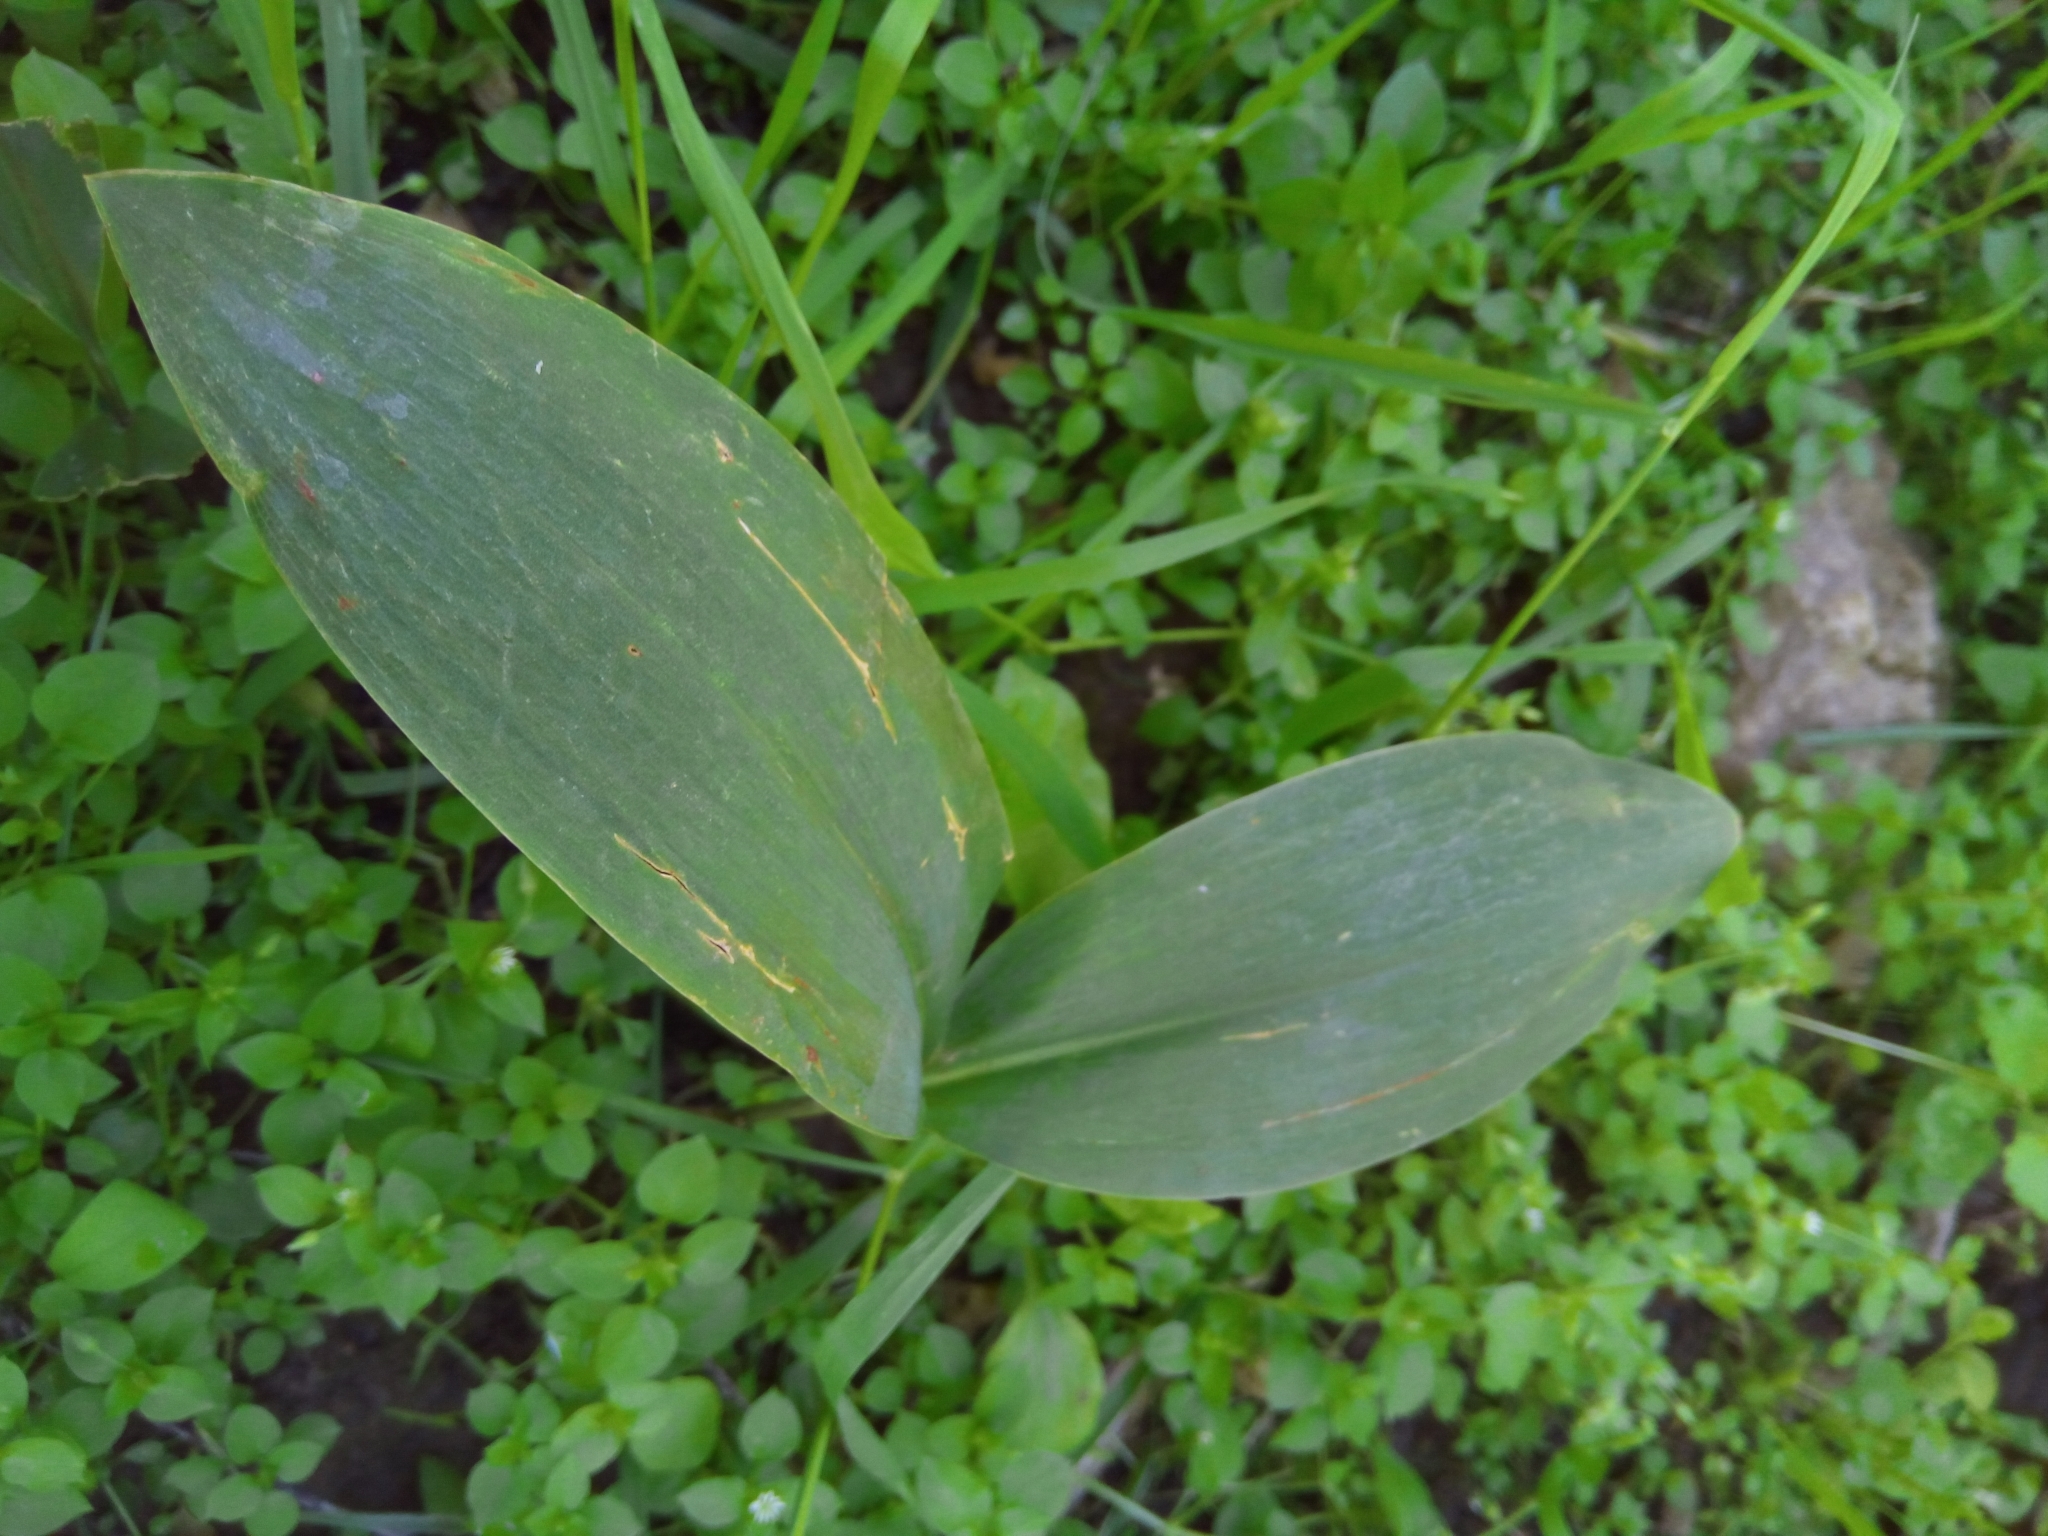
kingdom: Plantae
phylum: Tracheophyta
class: Liliopsida
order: Asparagales
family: Asparagaceae
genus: Convallaria
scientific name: Convallaria majalis
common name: Lily-of-the-valley
